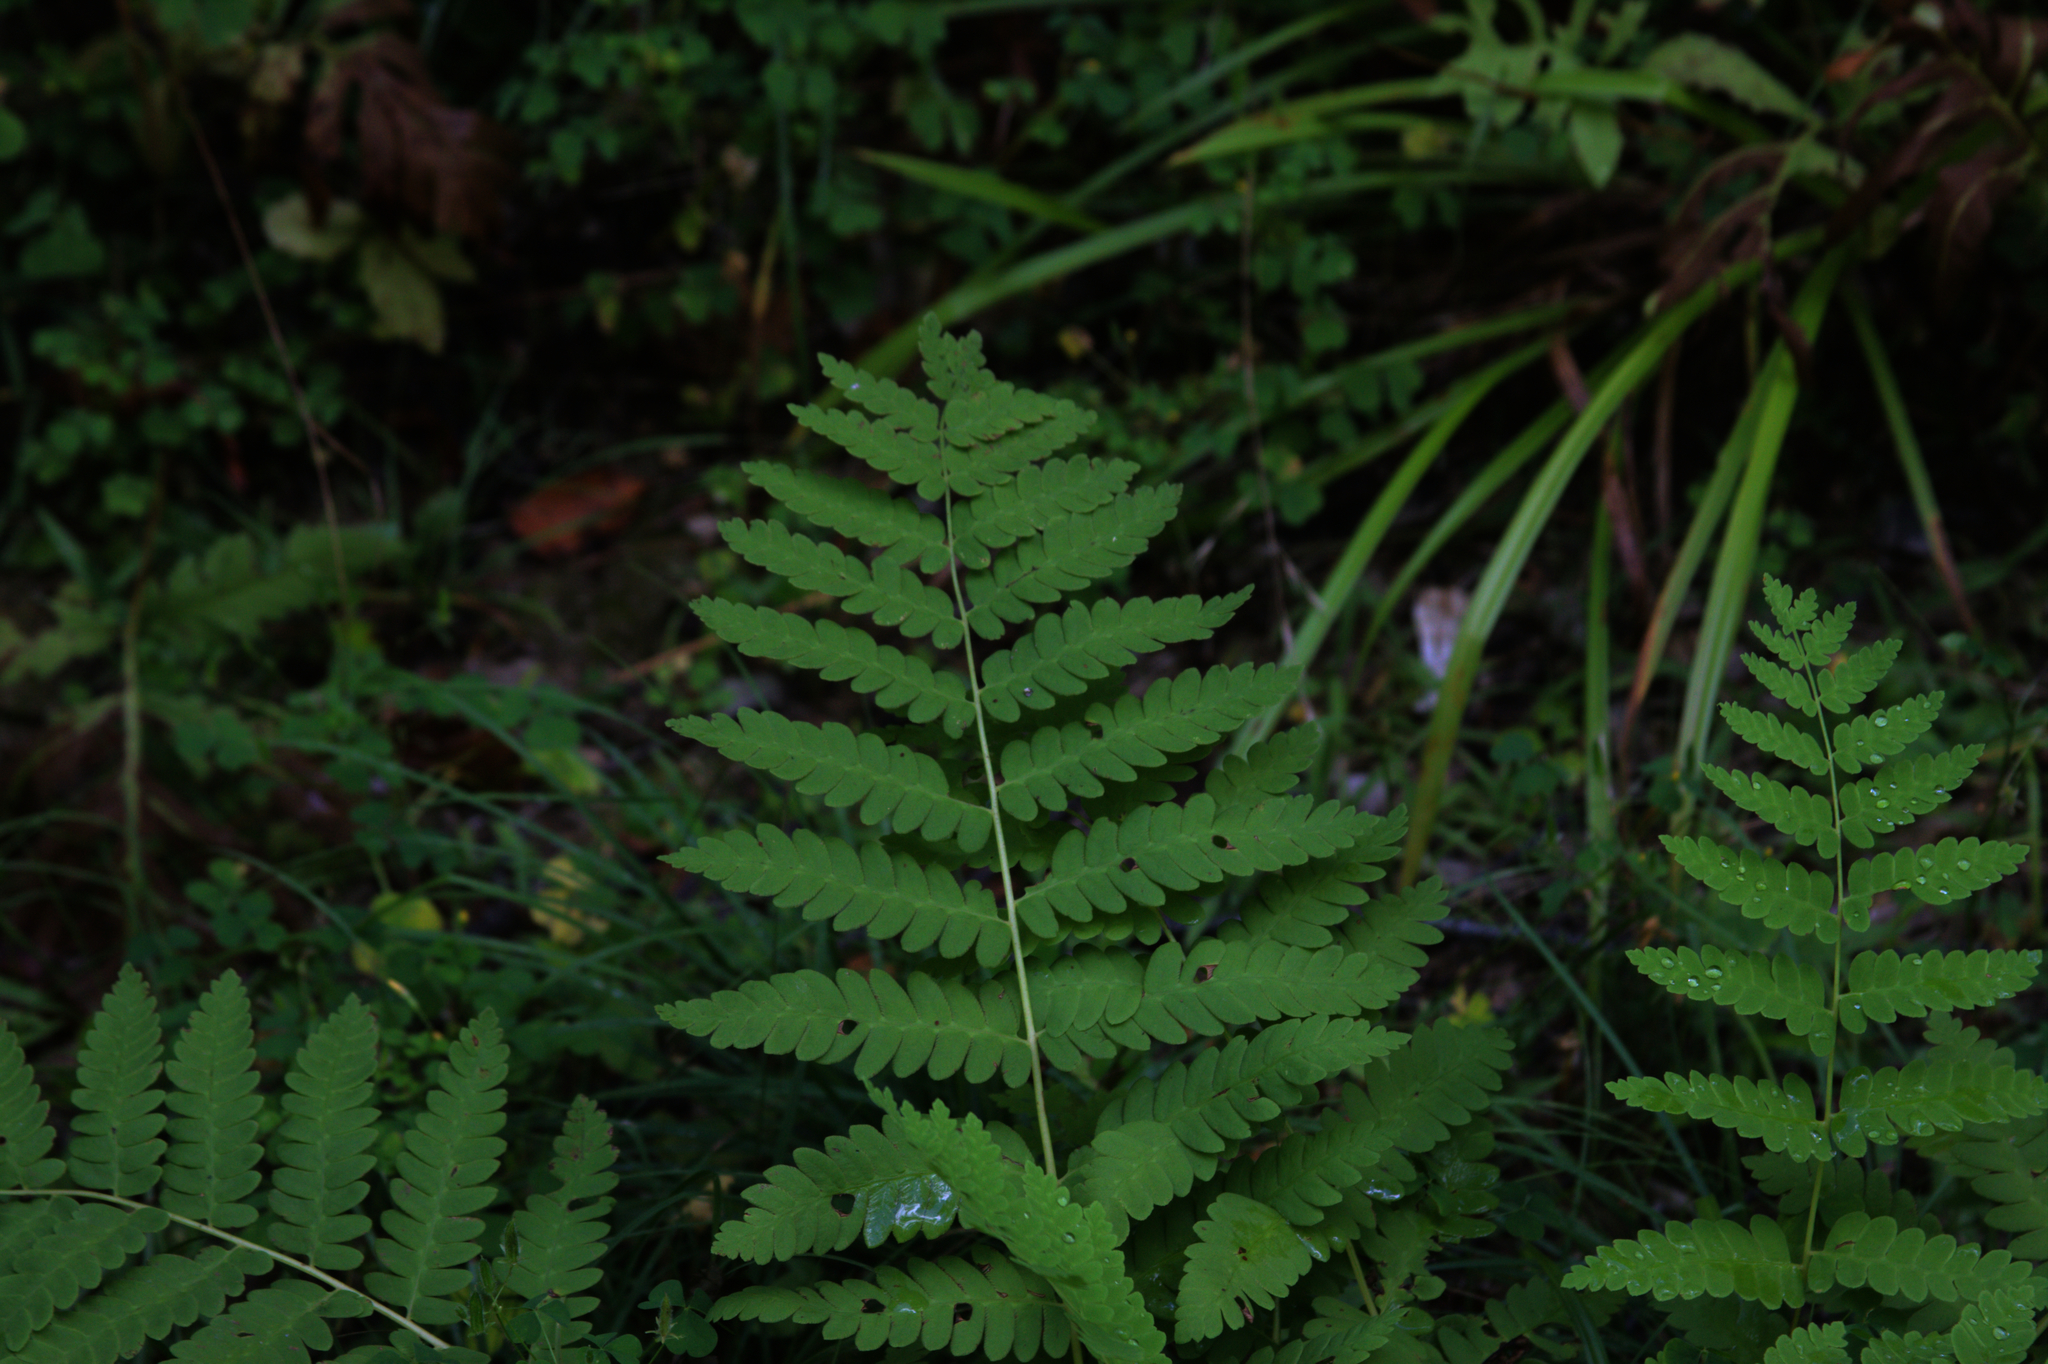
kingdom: Plantae
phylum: Tracheophyta
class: Polypodiopsida
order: Osmundales
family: Osmundaceae
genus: Claytosmunda
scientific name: Claytosmunda claytoniana
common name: Clayton's fern
